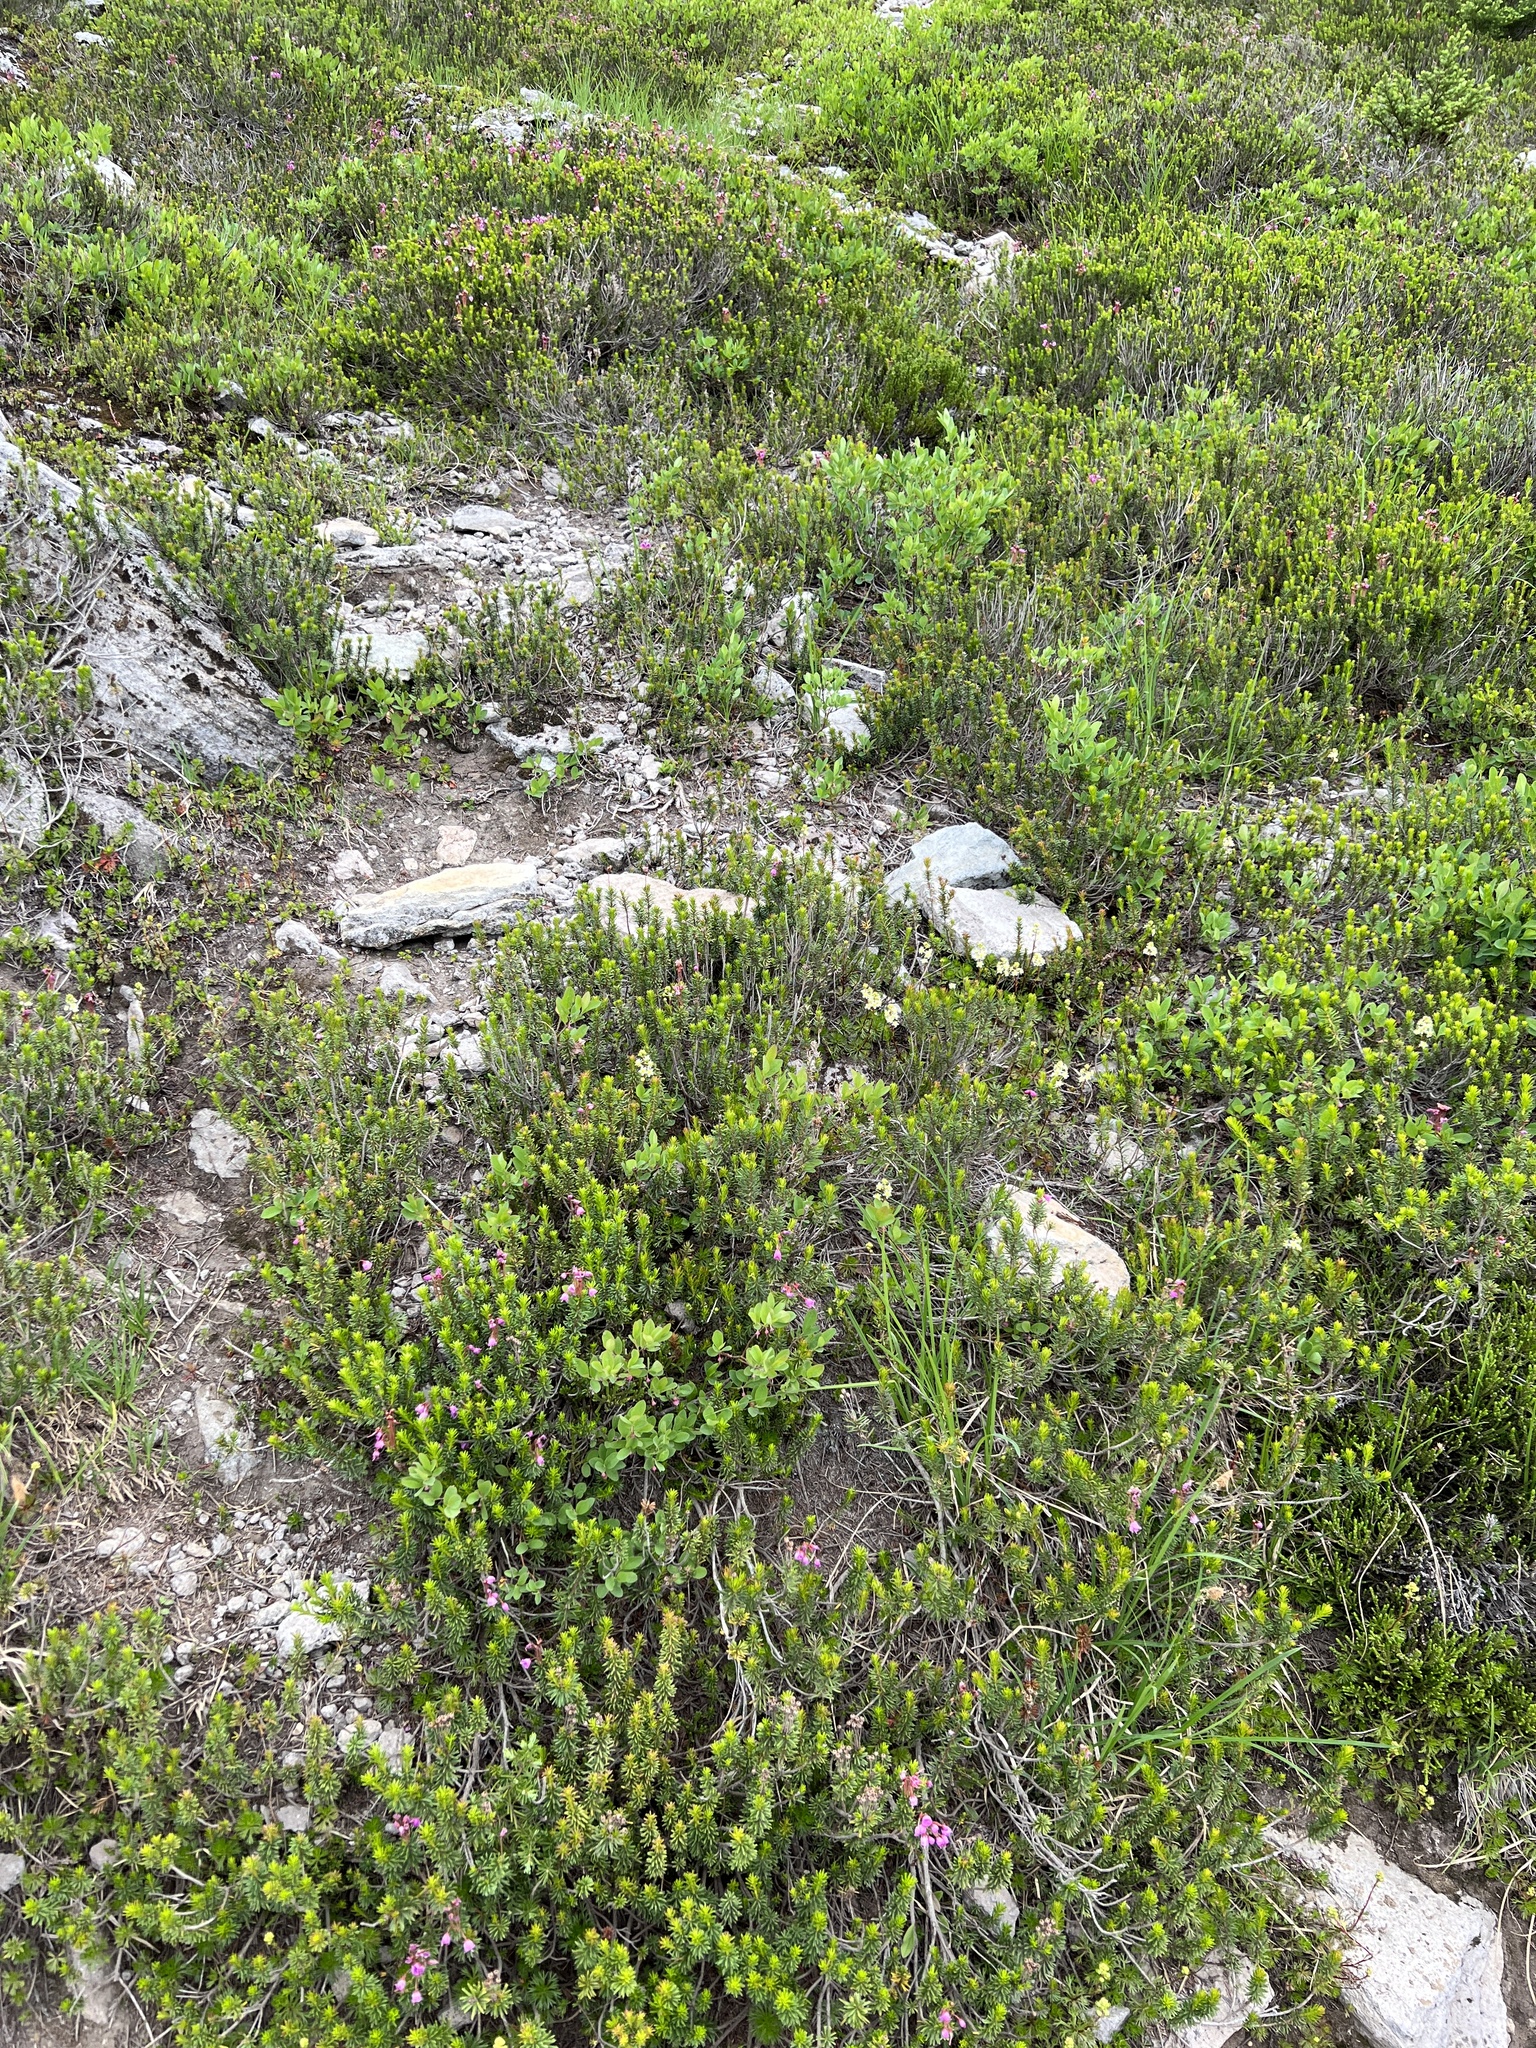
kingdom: Plantae
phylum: Tracheophyta
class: Magnoliopsida
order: Ericales
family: Ericaceae
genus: Phyllodoce
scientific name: Phyllodoce empetriformis
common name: Pink mountain heather
